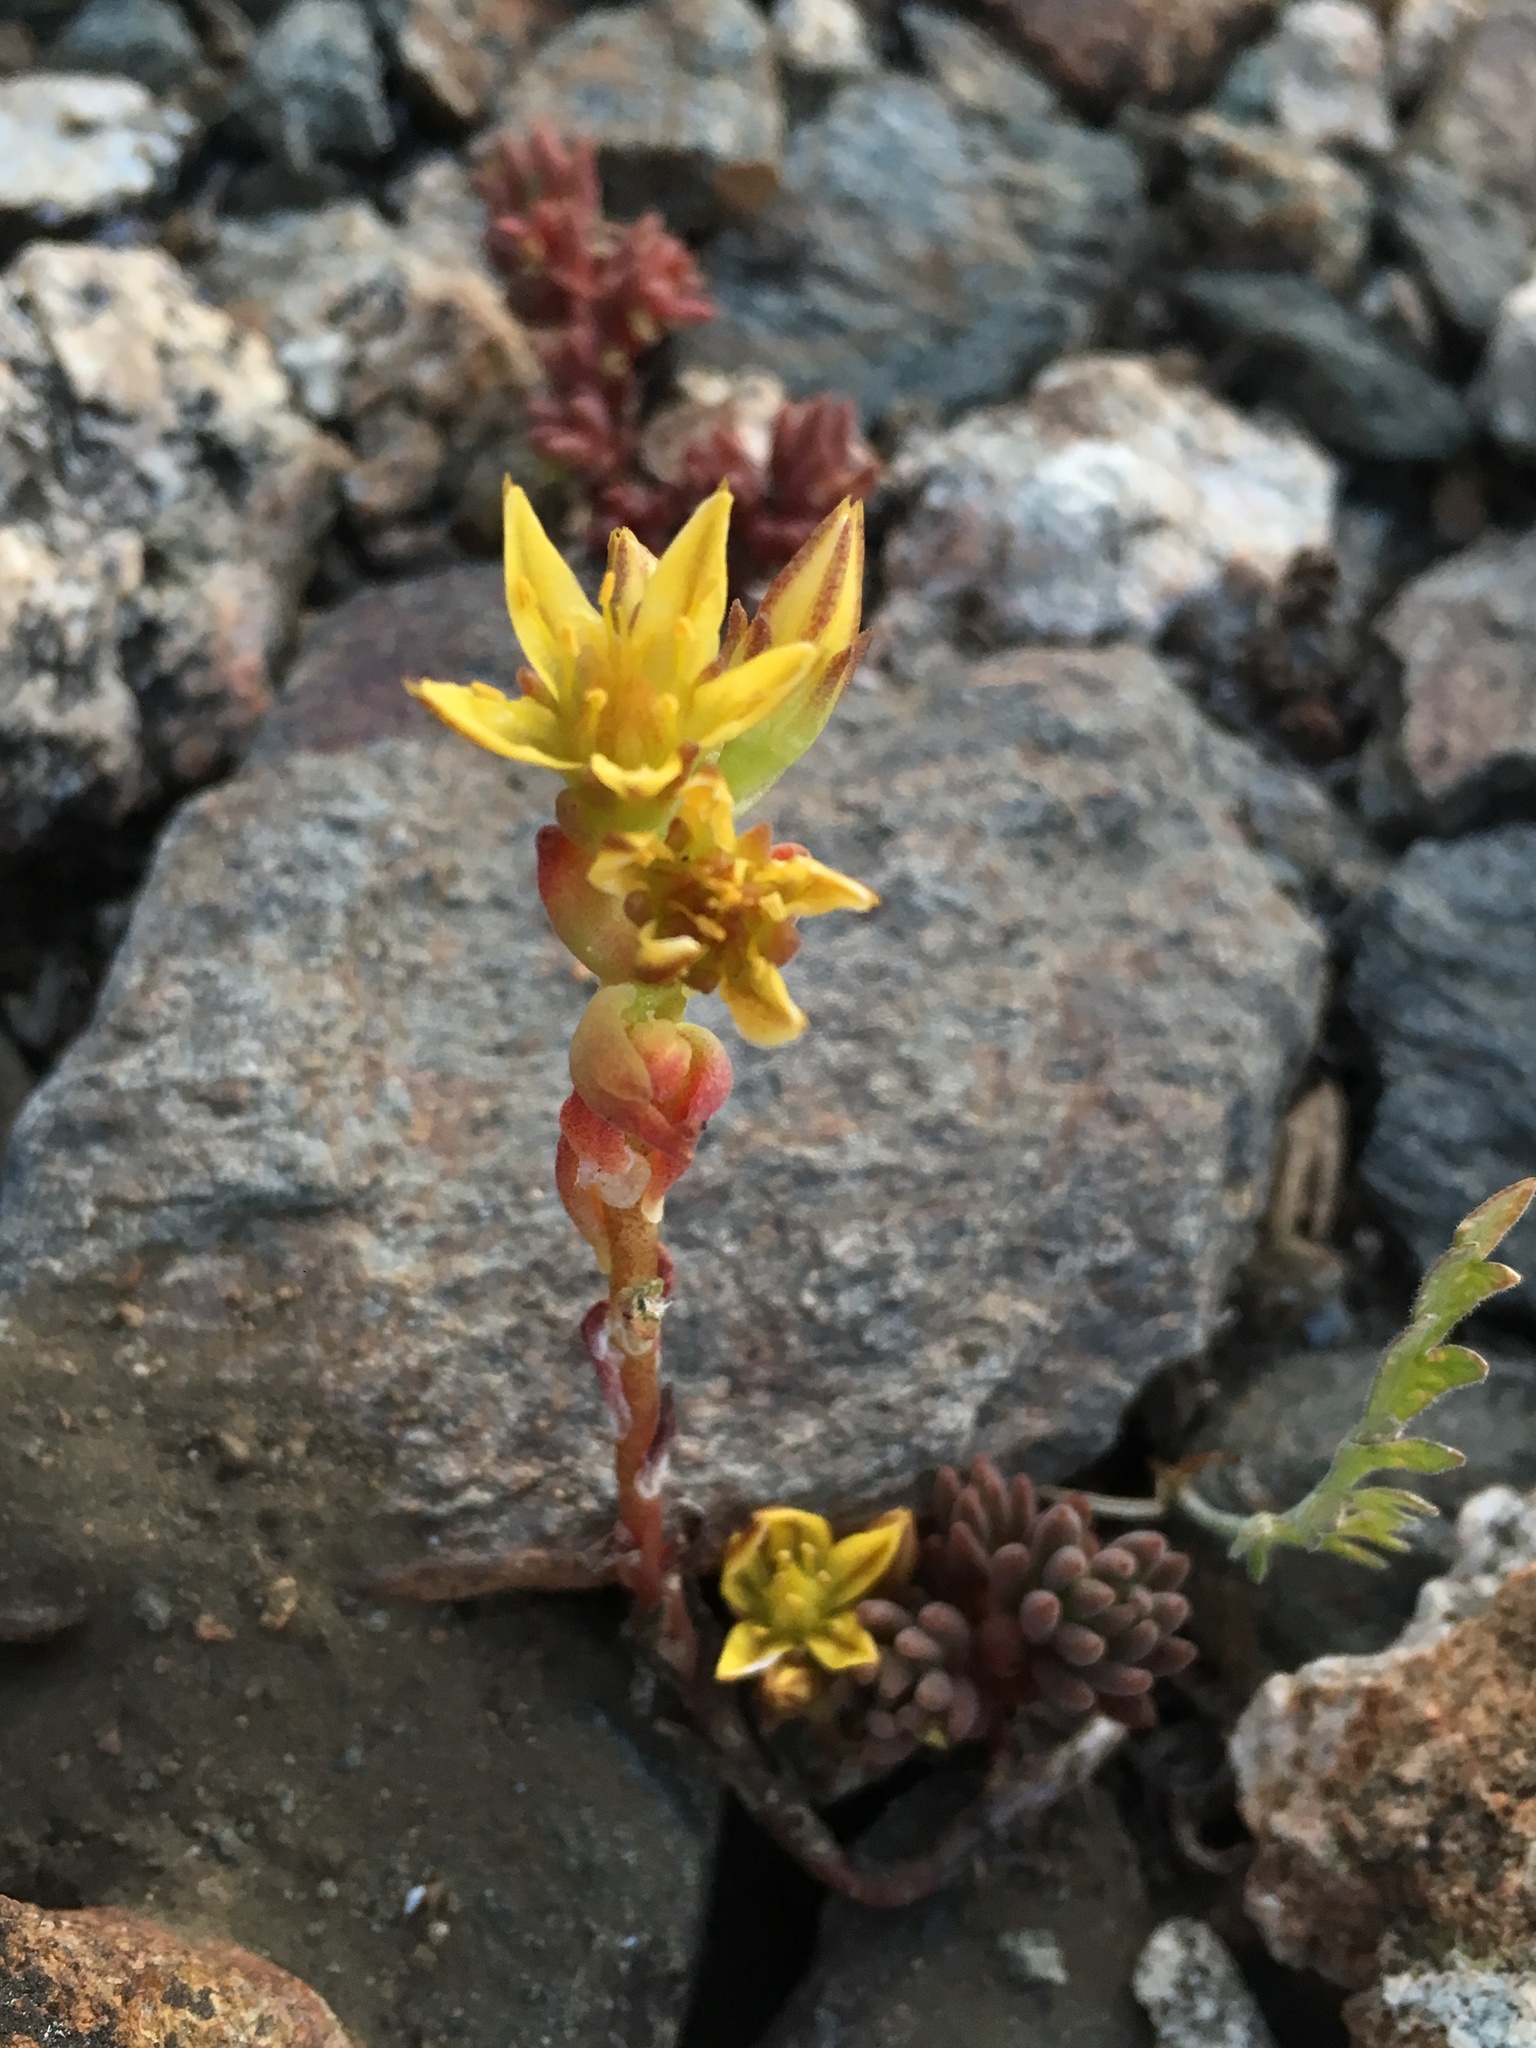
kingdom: Plantae
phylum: Tracheophyta
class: Magnoliopsida
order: Saxifragales
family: Crassulaceae
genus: Sedum
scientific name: Sedum lanceolatum
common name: Common stonecrop
